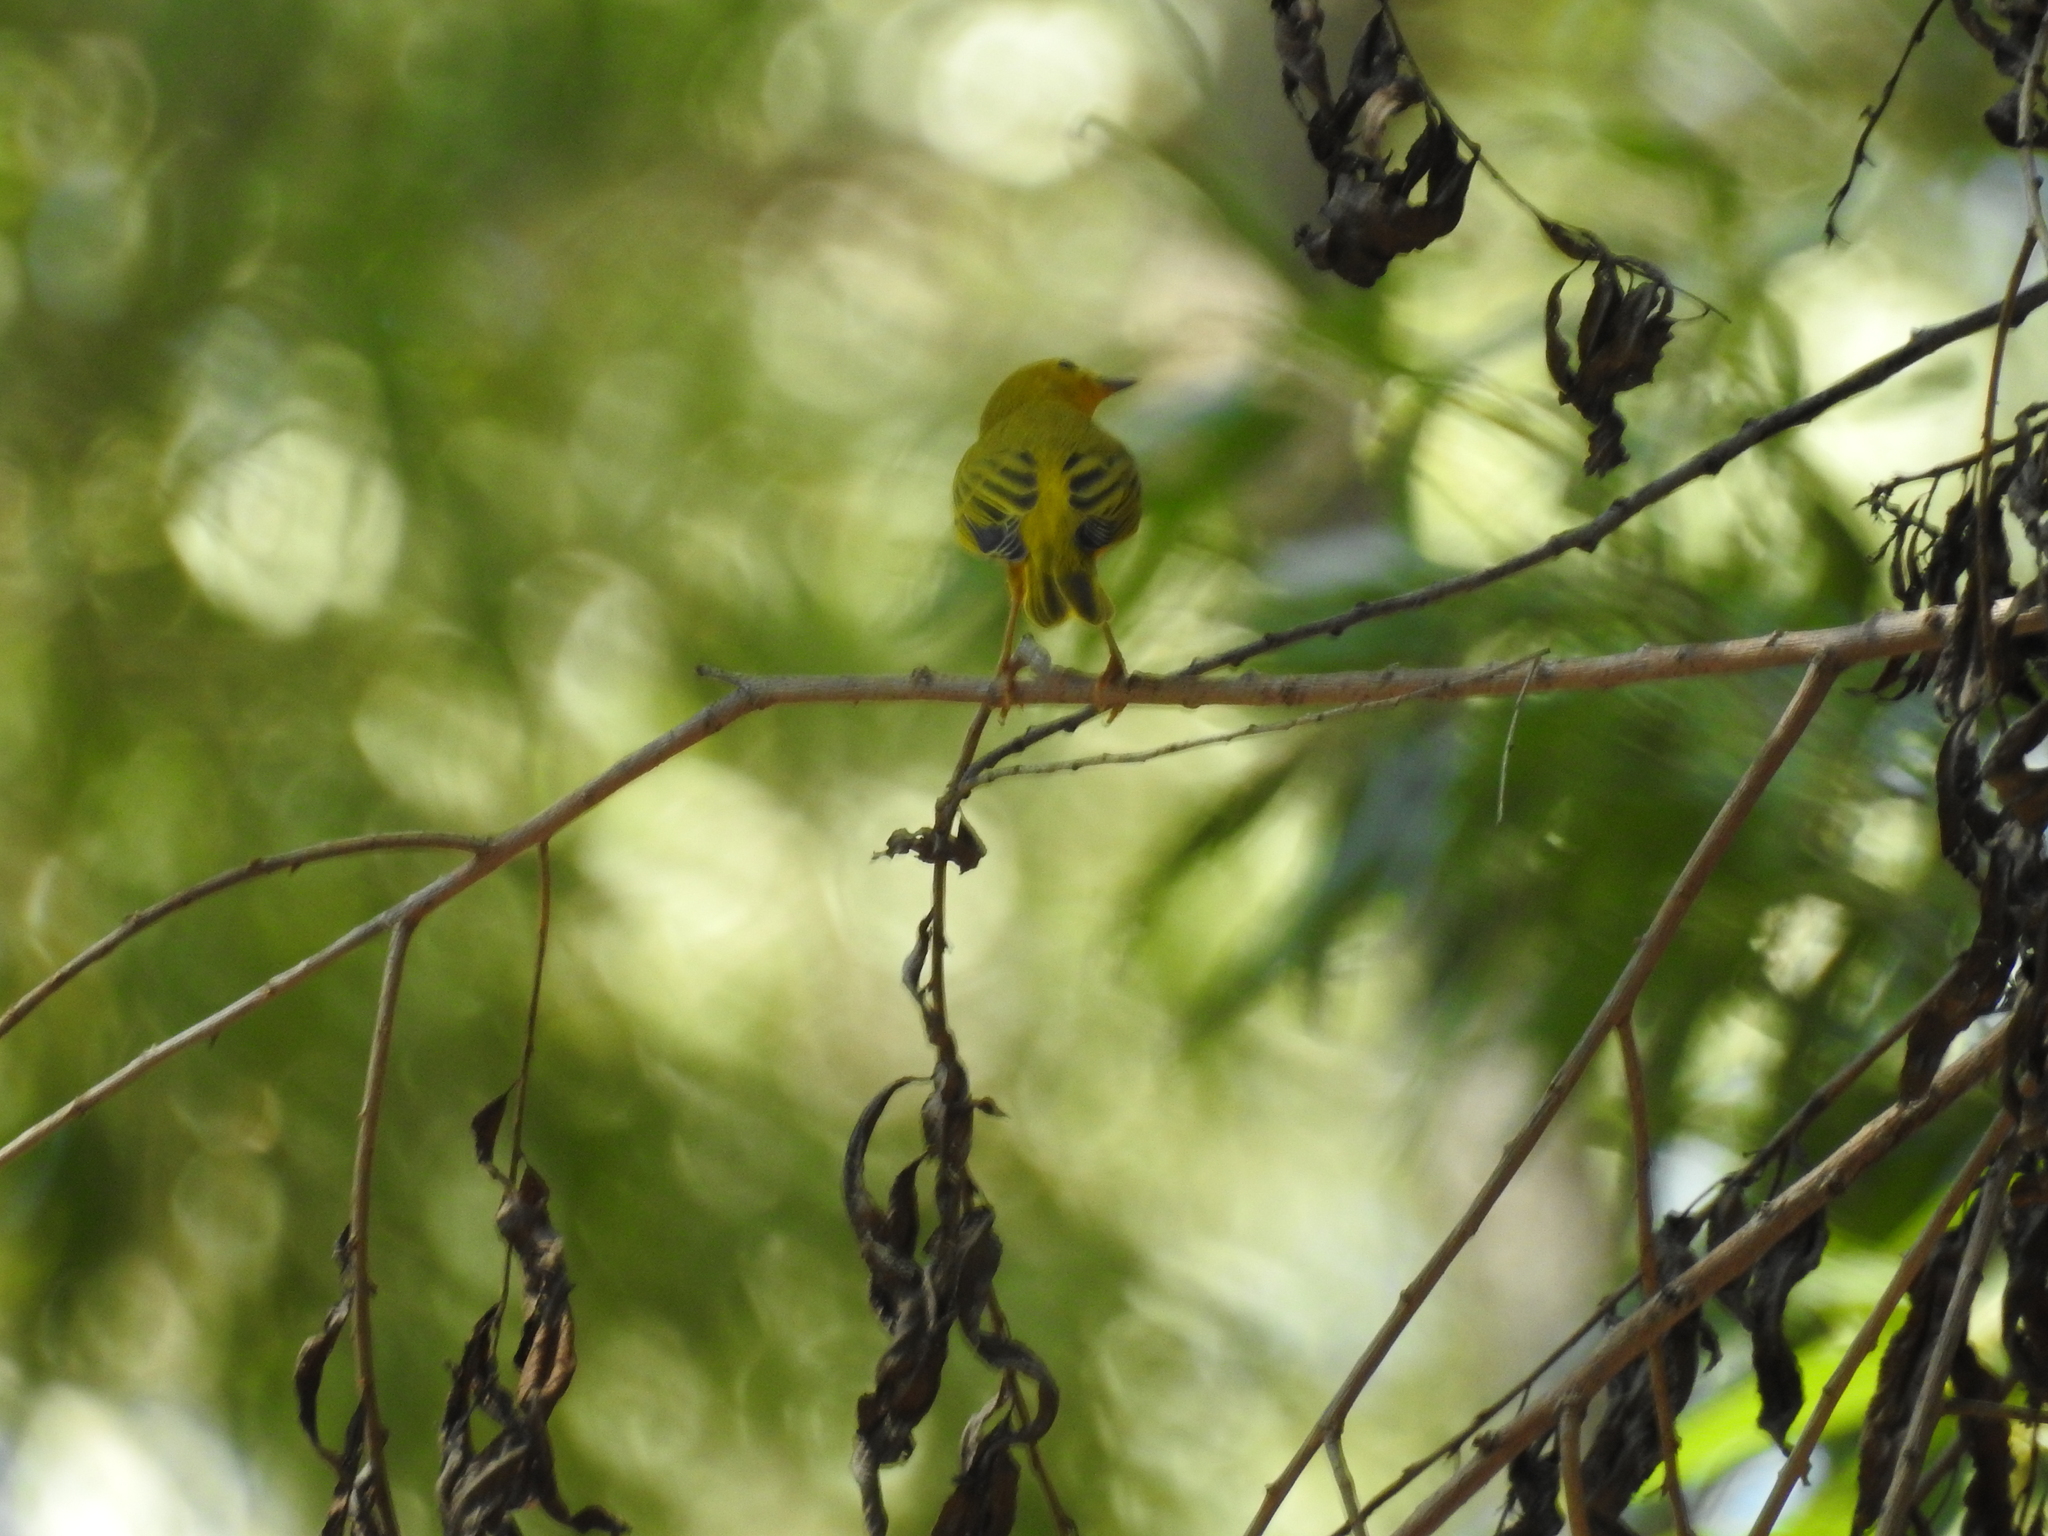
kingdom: Animalia
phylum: Chordata
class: Aves
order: Passeriformes
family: Parulidae
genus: Setophaga
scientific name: Setophaga petechia
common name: Yellow warbler
